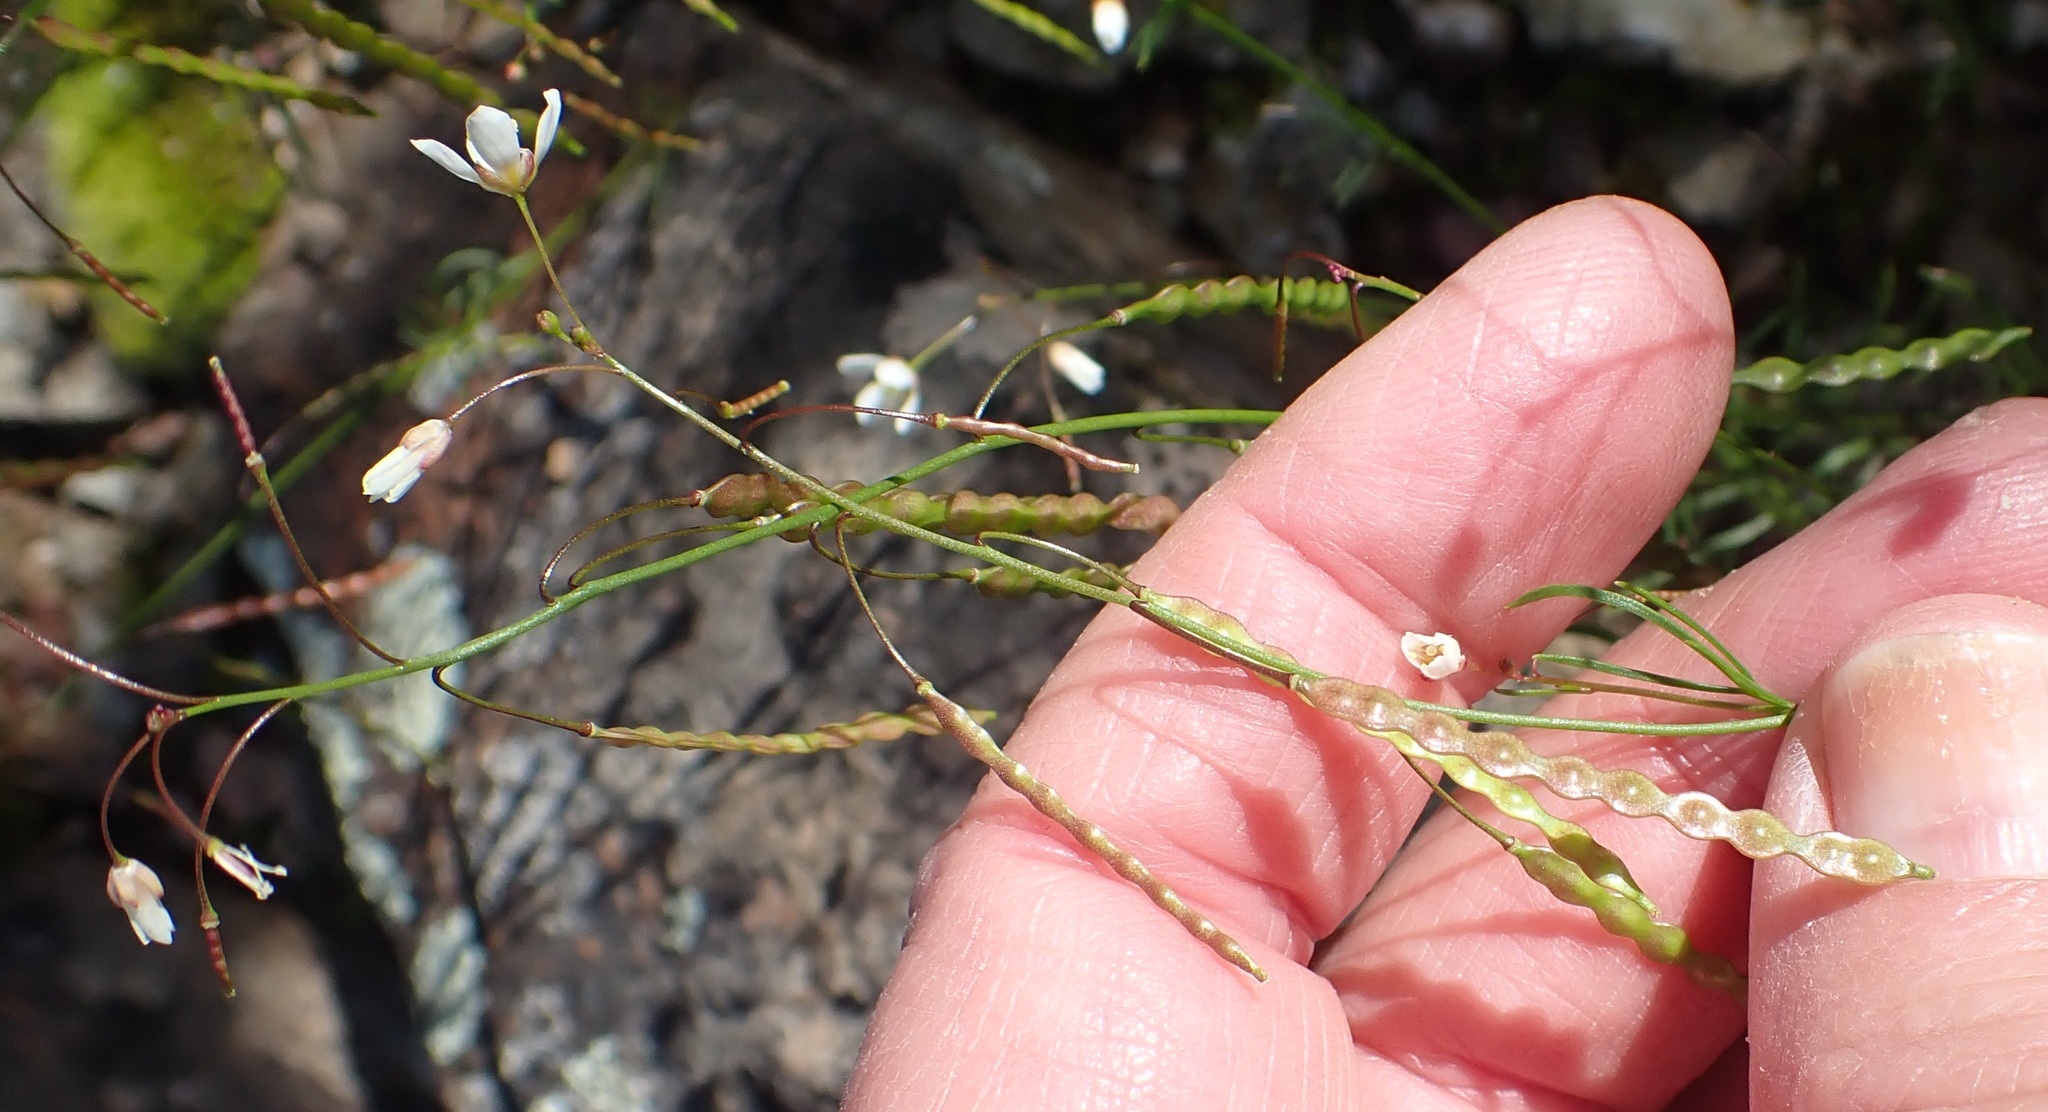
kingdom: Plantae
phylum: Tracheophyta
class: Magnoliopsida
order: Brassicales
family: Brassicaceae
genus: Heliophila
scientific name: Heliophila pendula
